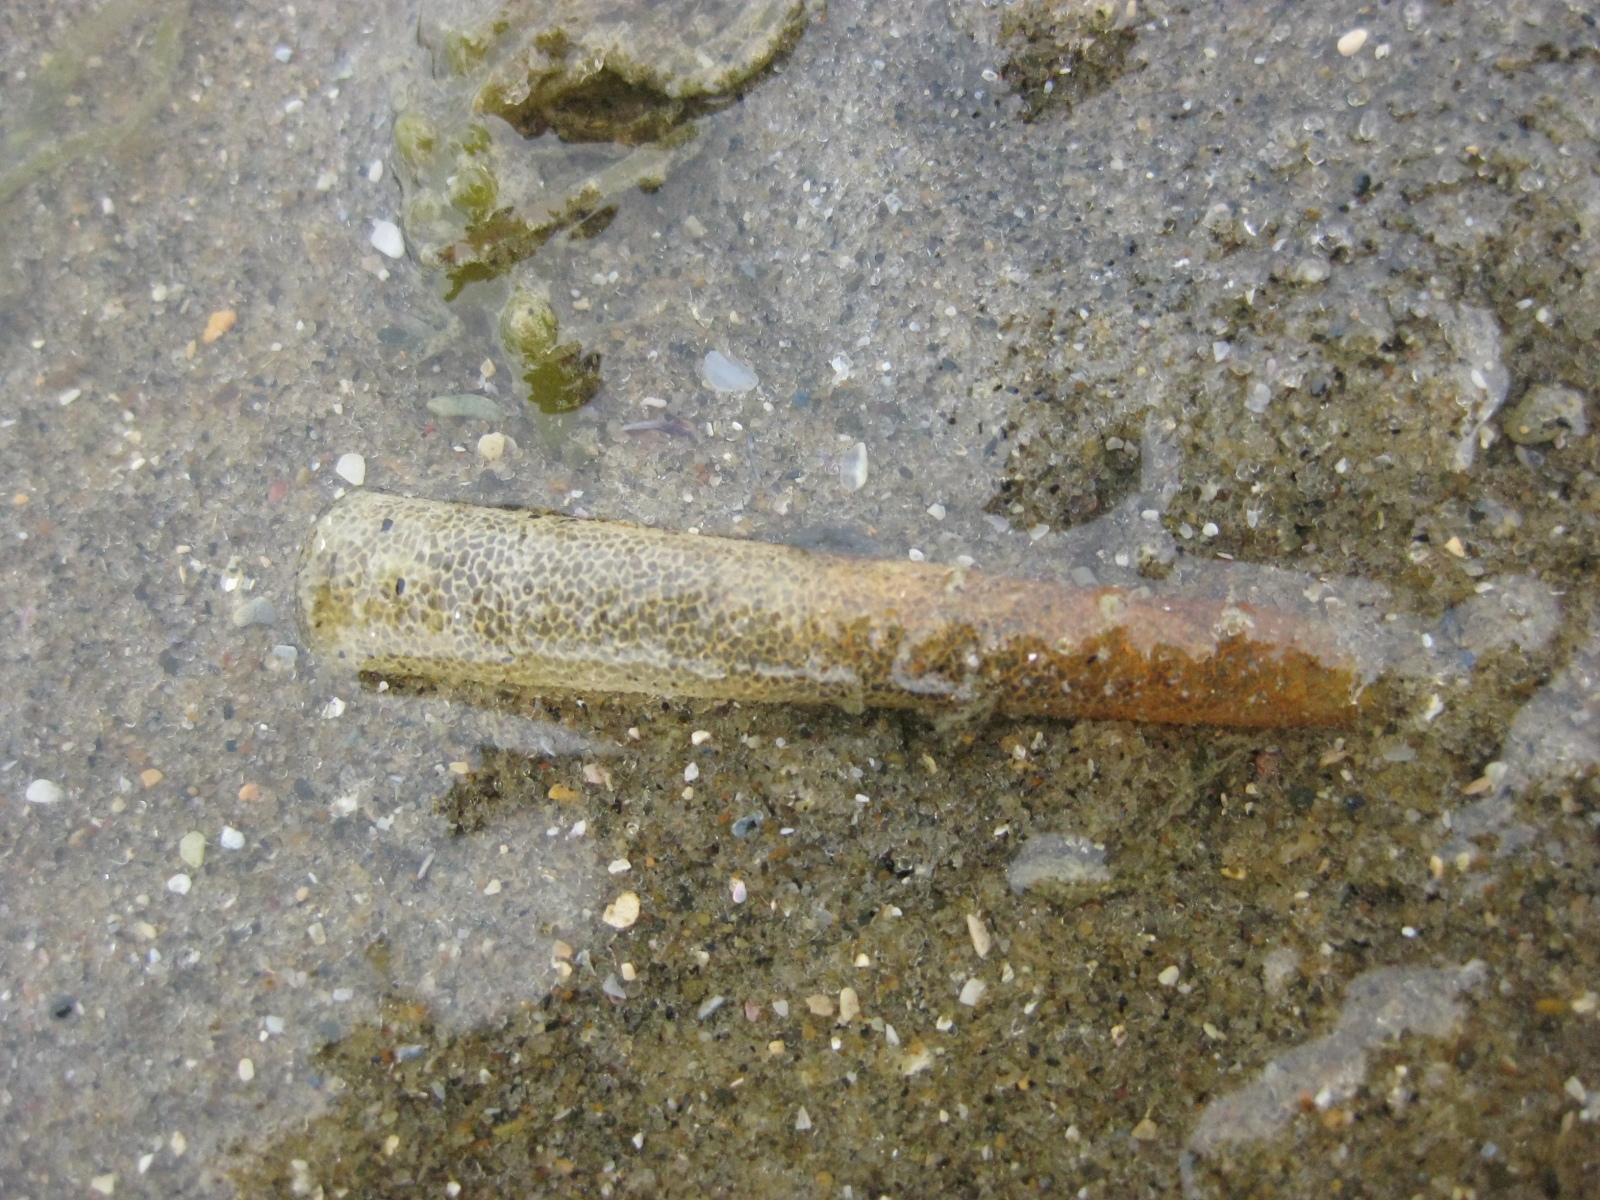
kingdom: Animalia
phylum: Annelida
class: Polychaeta
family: Pectinariidae
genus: Lagis
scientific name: Lagis australis
